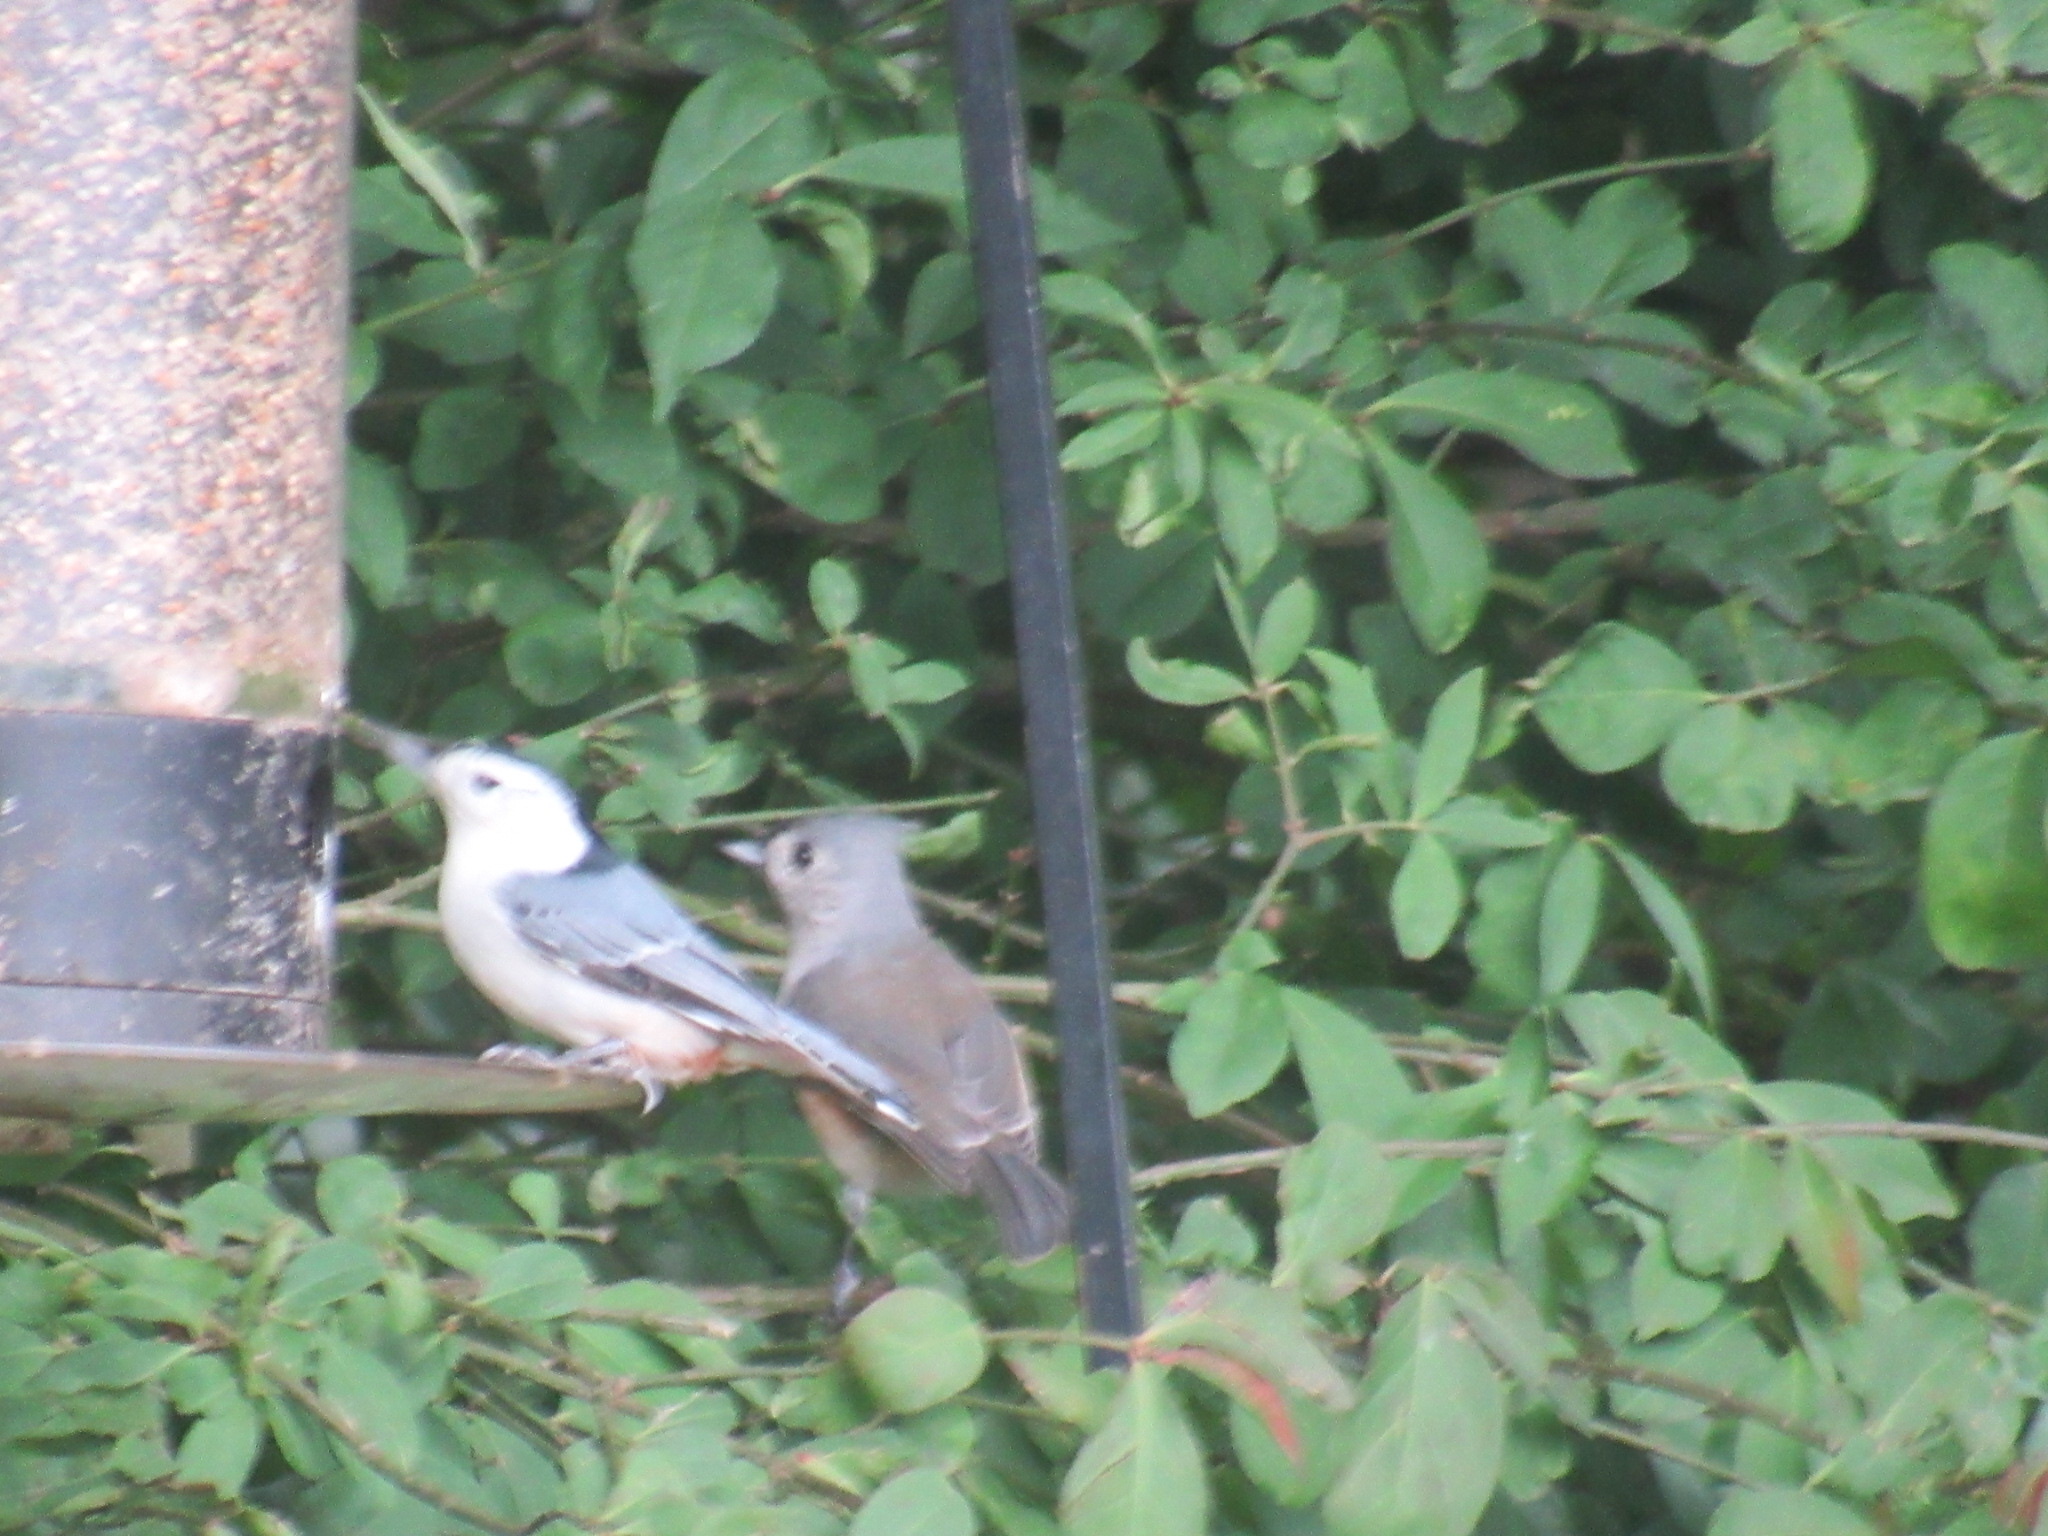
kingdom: Animalia
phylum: Chordata
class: Aves
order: Passeriformes
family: Paridae
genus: Baeolophus
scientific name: Baeolophus bicolor
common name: Tufted titmouse
